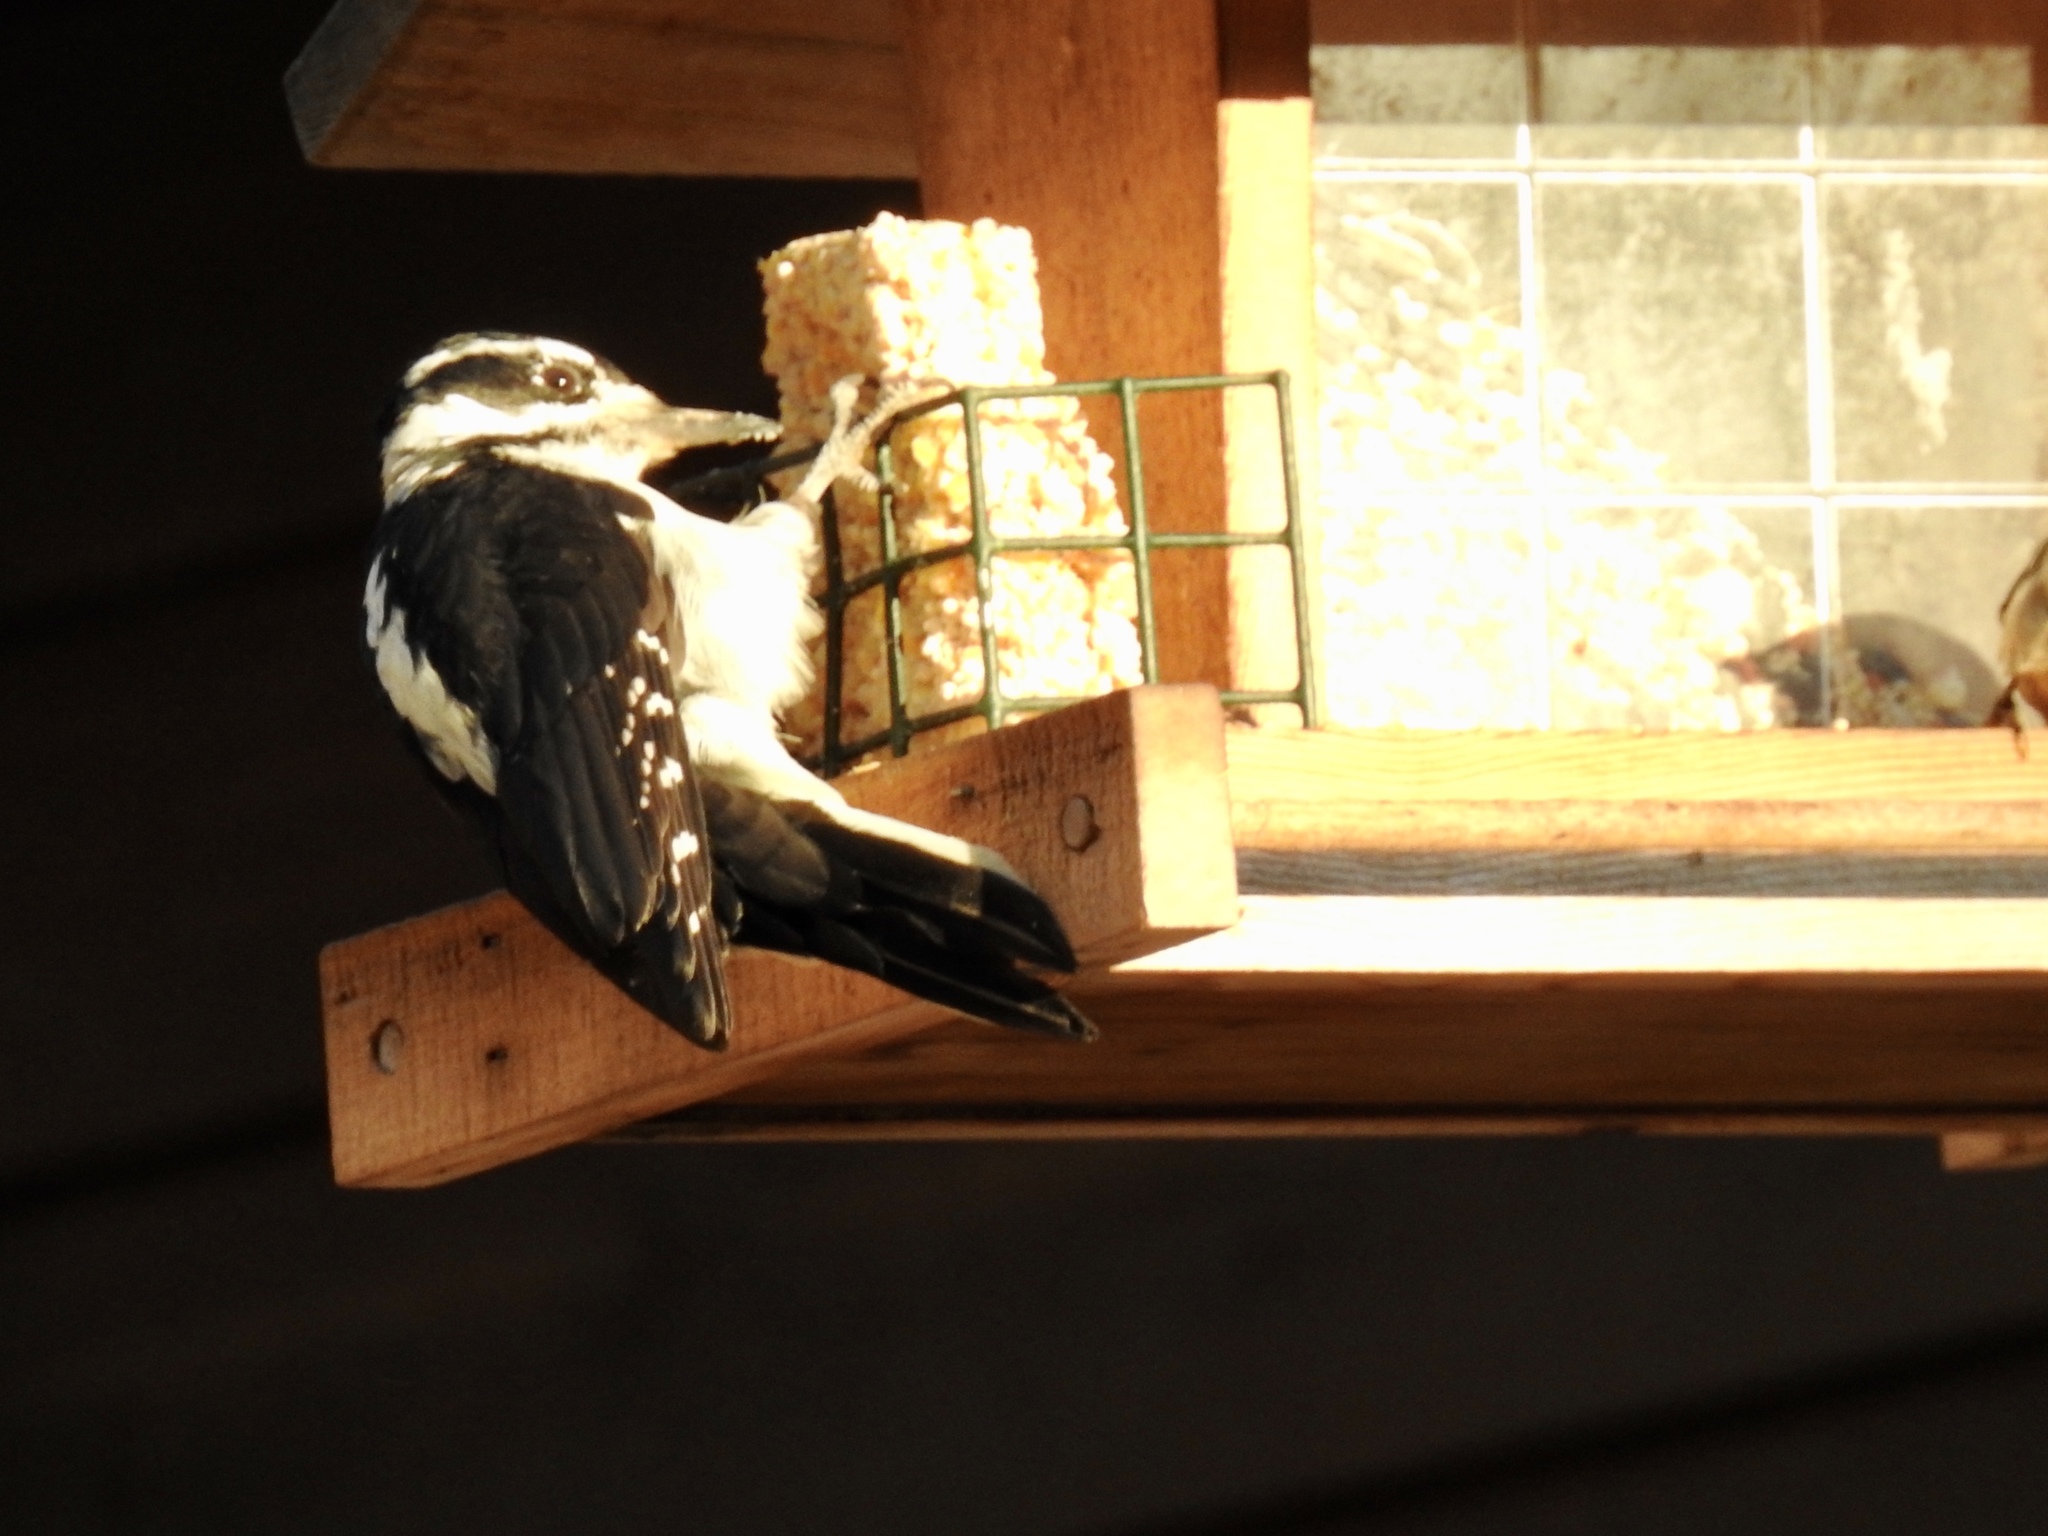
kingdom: Animalia
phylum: Chordata
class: Aves
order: Piciformes
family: Picidae
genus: Leuconotopicus
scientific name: Leuconotopicus villosus
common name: Hairy woodpecker
